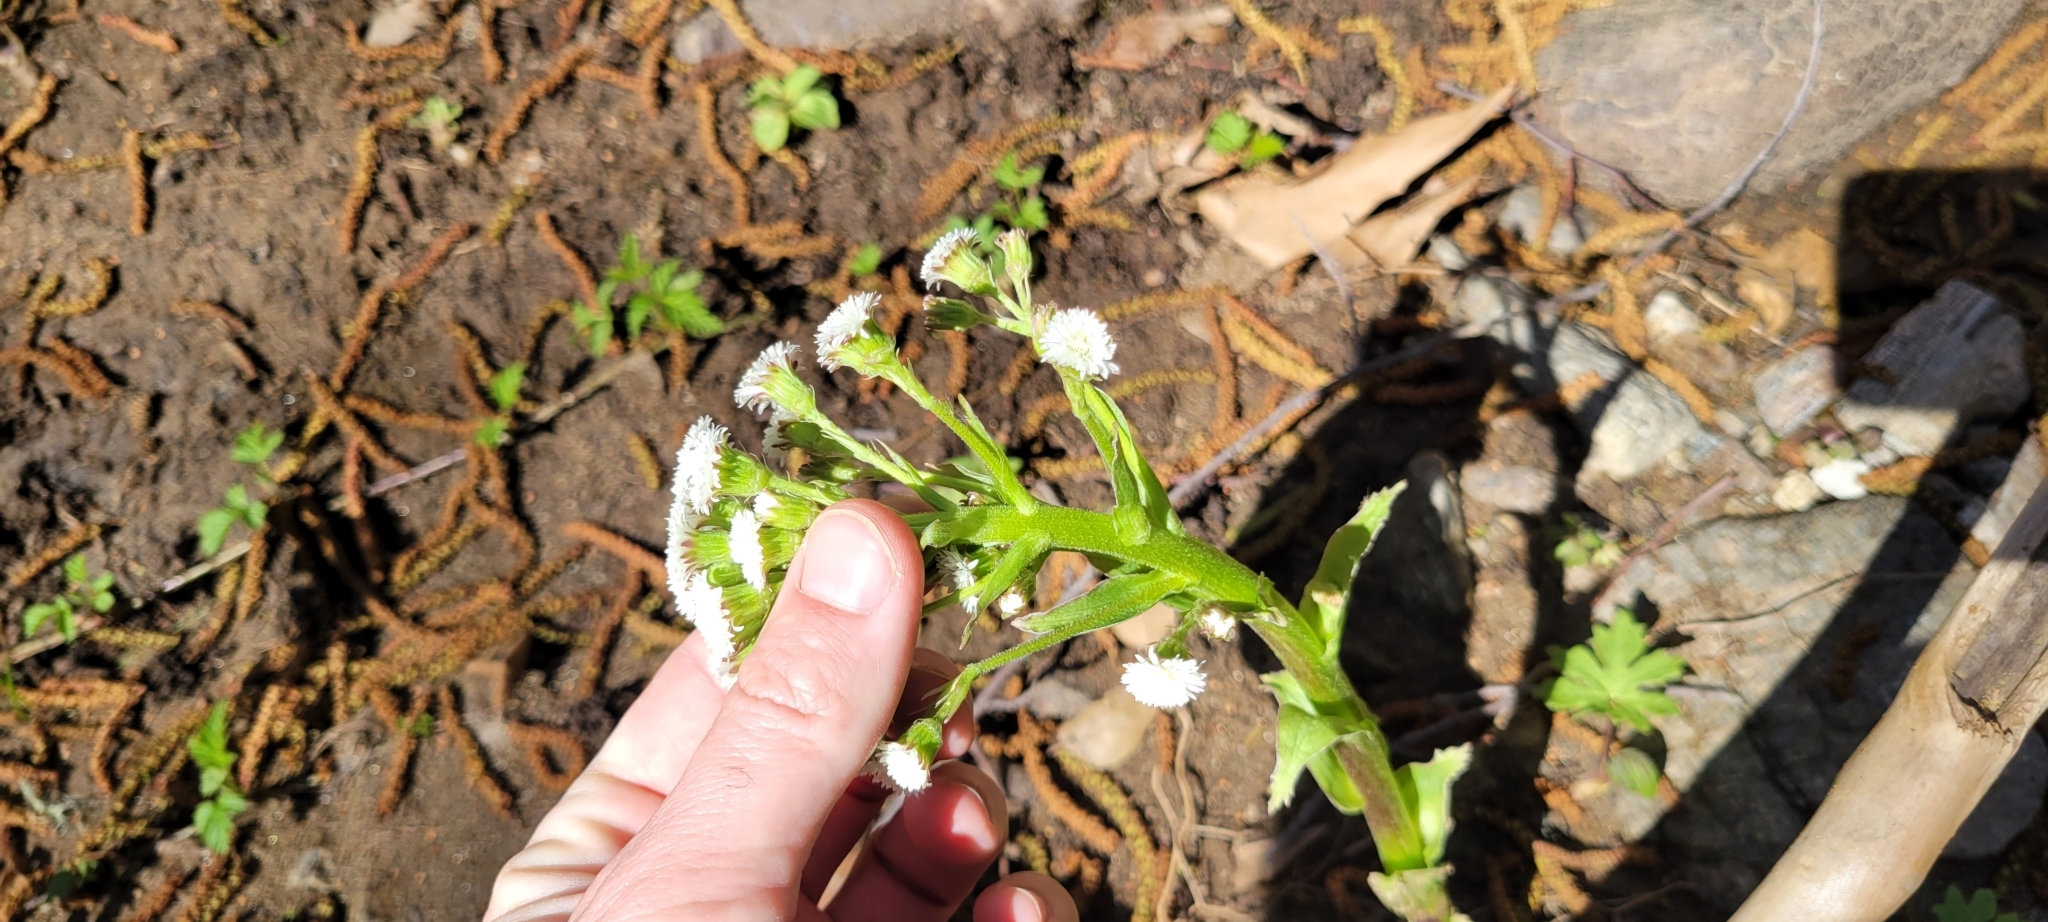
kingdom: Plantae
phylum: Tracheophyta
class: Magnoliopsida
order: Asterales
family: Asteraceae
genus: Petasites
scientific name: Petasites frigidus
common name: Arctic butterbur
